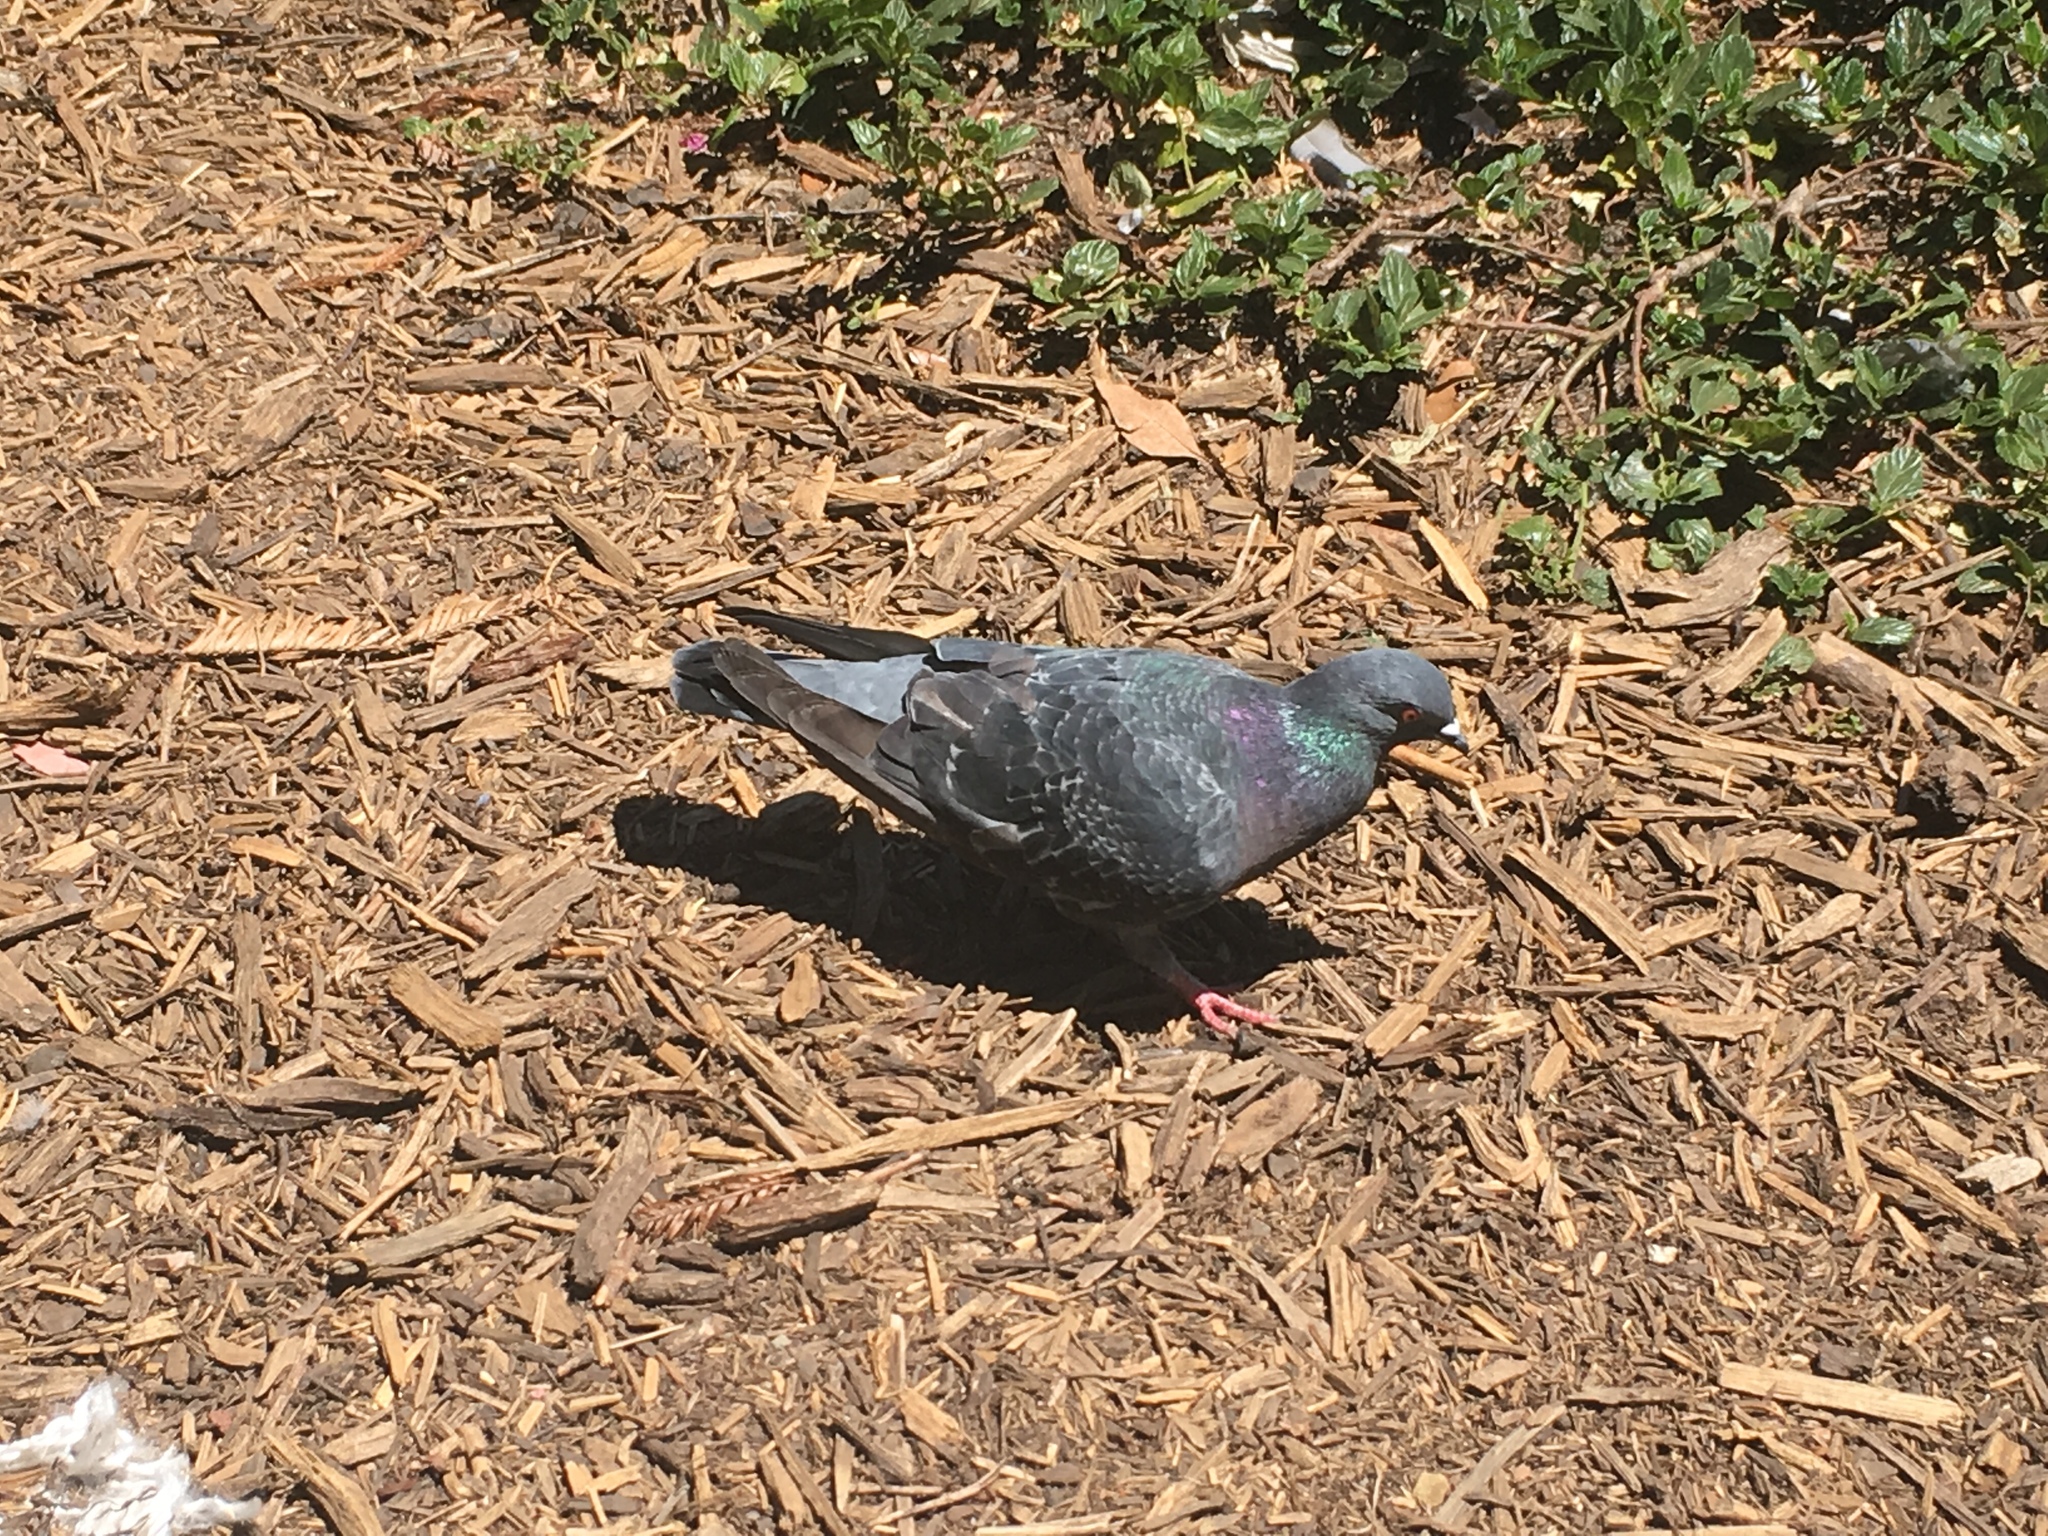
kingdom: Animalia
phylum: Chordata
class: Aves
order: Columbiformes
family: Columbidae
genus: Columba
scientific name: Columba livia
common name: Rock pigeon
